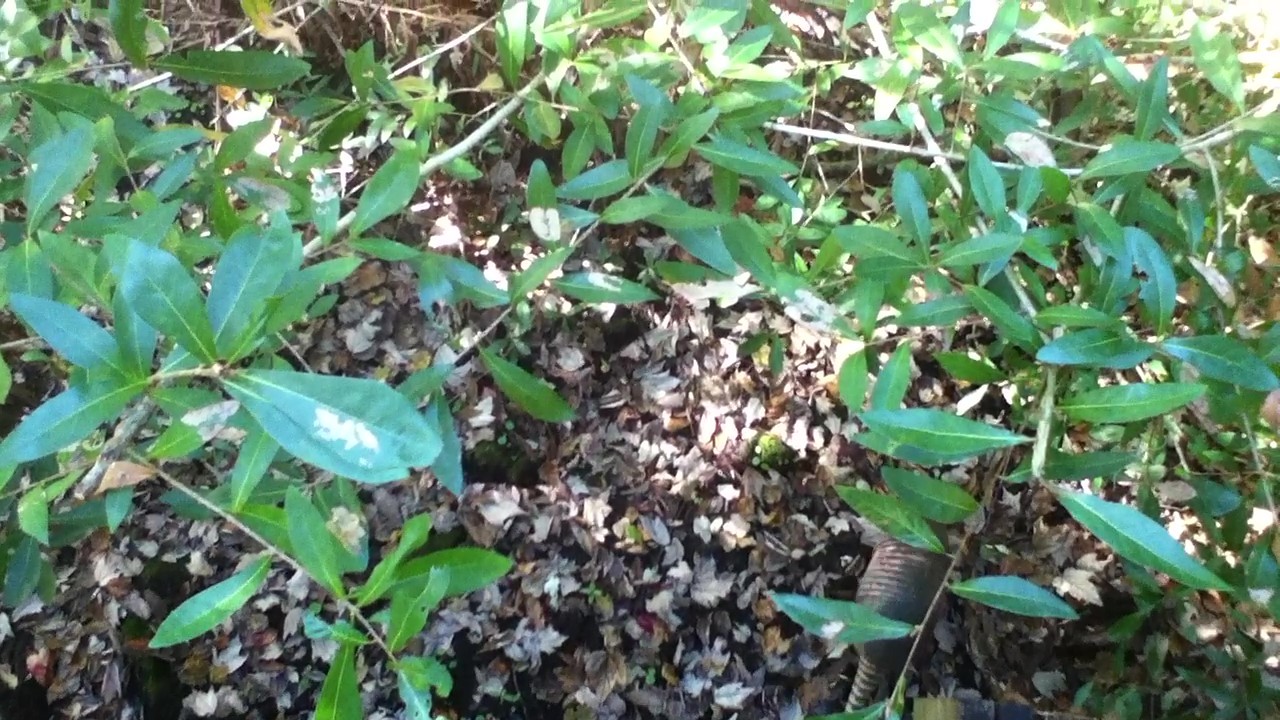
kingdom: Animalia
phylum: Chordata
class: Mammalia
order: Cingulata
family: Dasypodidae
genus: Dasypus
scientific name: Dasypus novemcinctus
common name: Nine-banded armadillo
